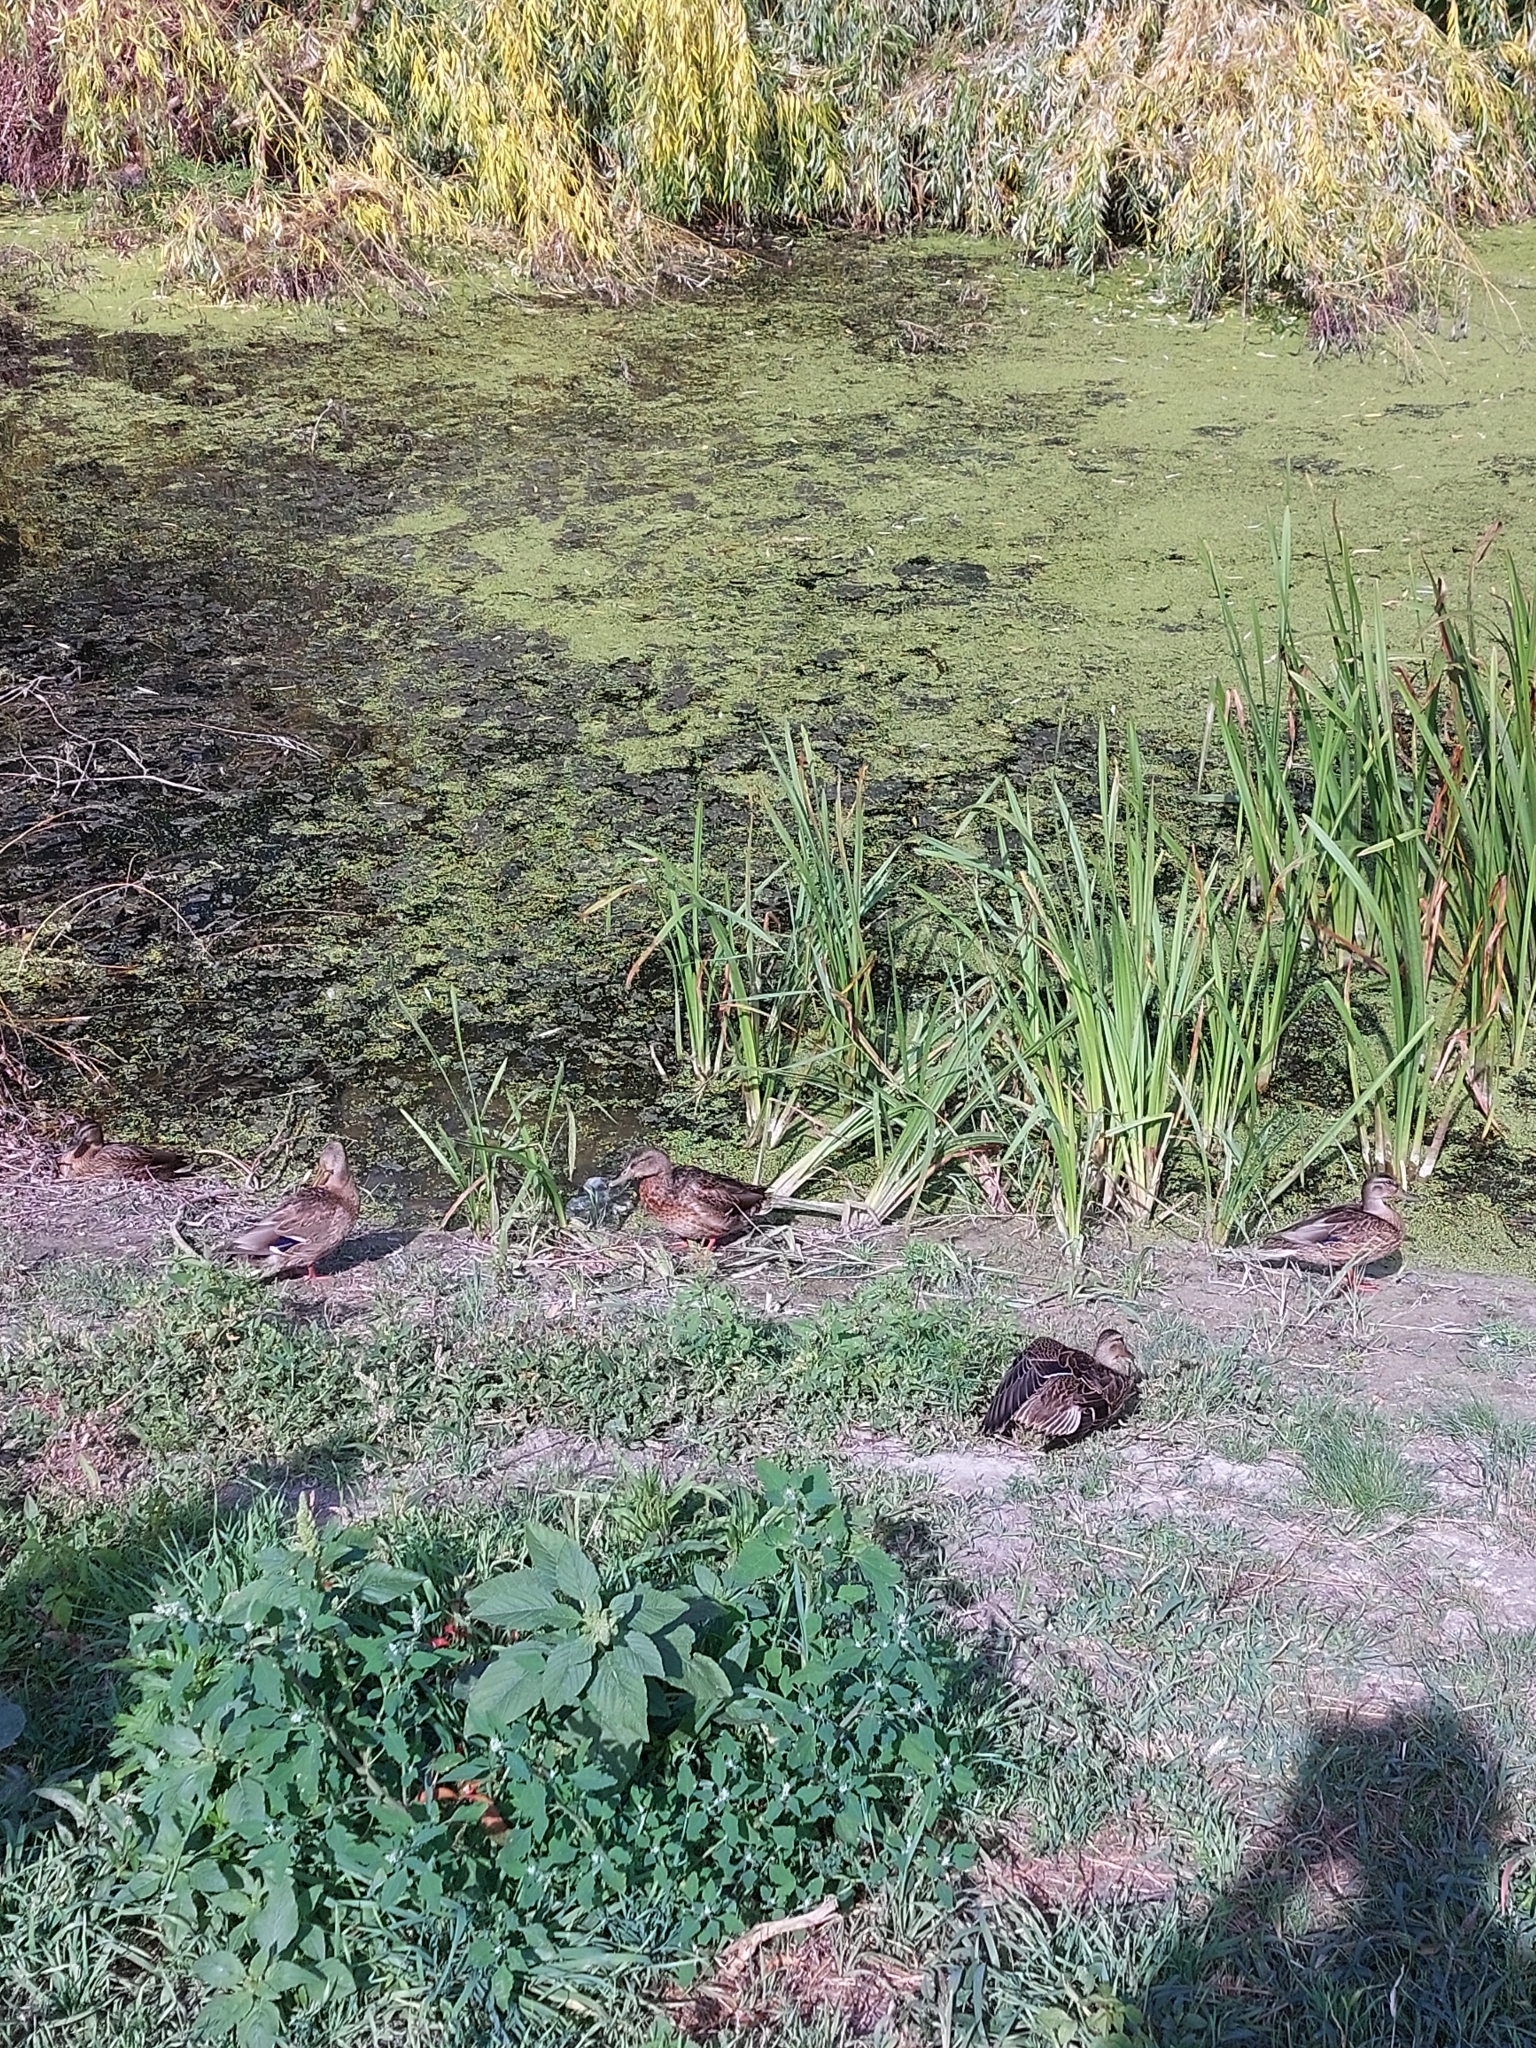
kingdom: Animalia
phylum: Chordata
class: Aves
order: Anseriformes
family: Anatidae
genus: Anas
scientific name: Anas platyrhynchos
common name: Mallard
